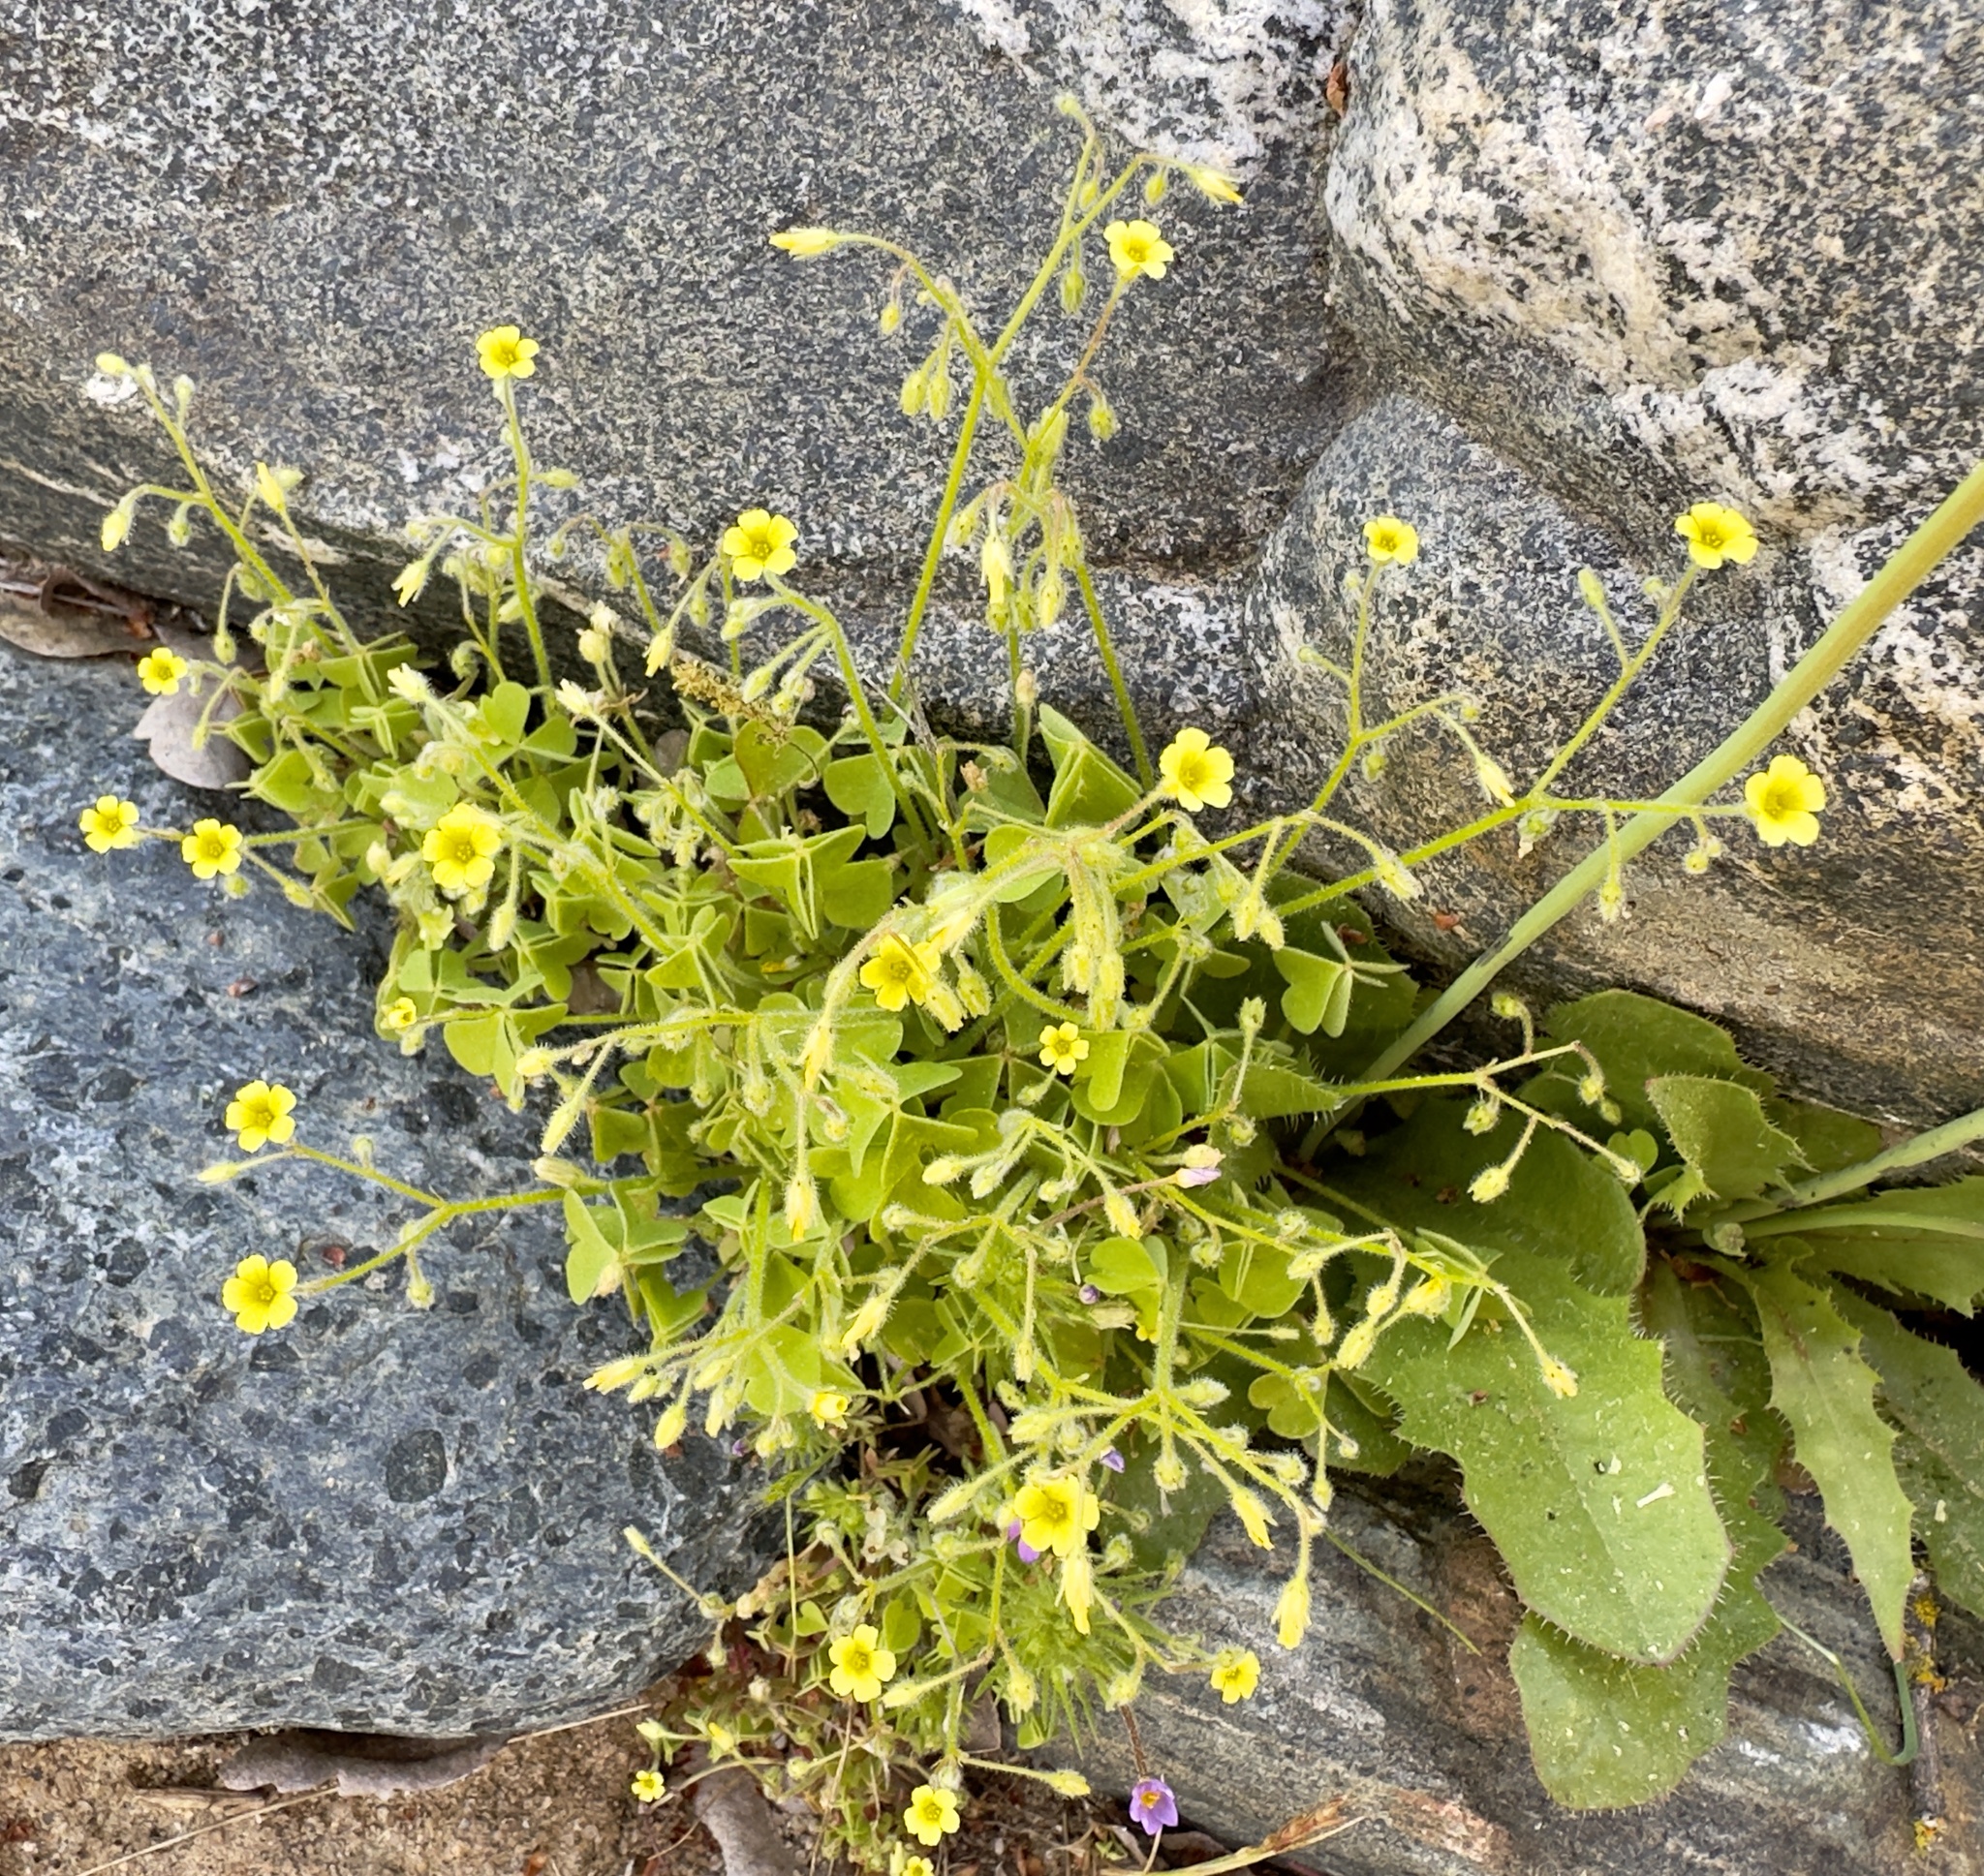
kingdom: Plantae
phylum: Tracheophyta
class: Magnoliopsida
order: Oxalidales
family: Oxalidaceae
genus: Oxalis
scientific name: Oxalis laxa
